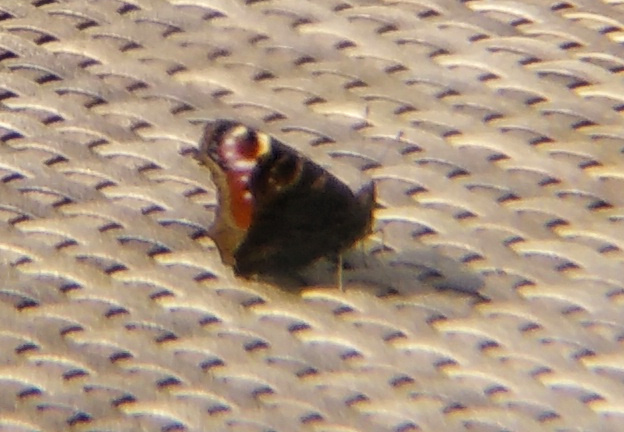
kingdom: Animalia
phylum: Arthropoda
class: Insecta
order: Lepidoptera
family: Nymphalidae
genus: Aglais
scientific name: Aglais io
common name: Peacock
